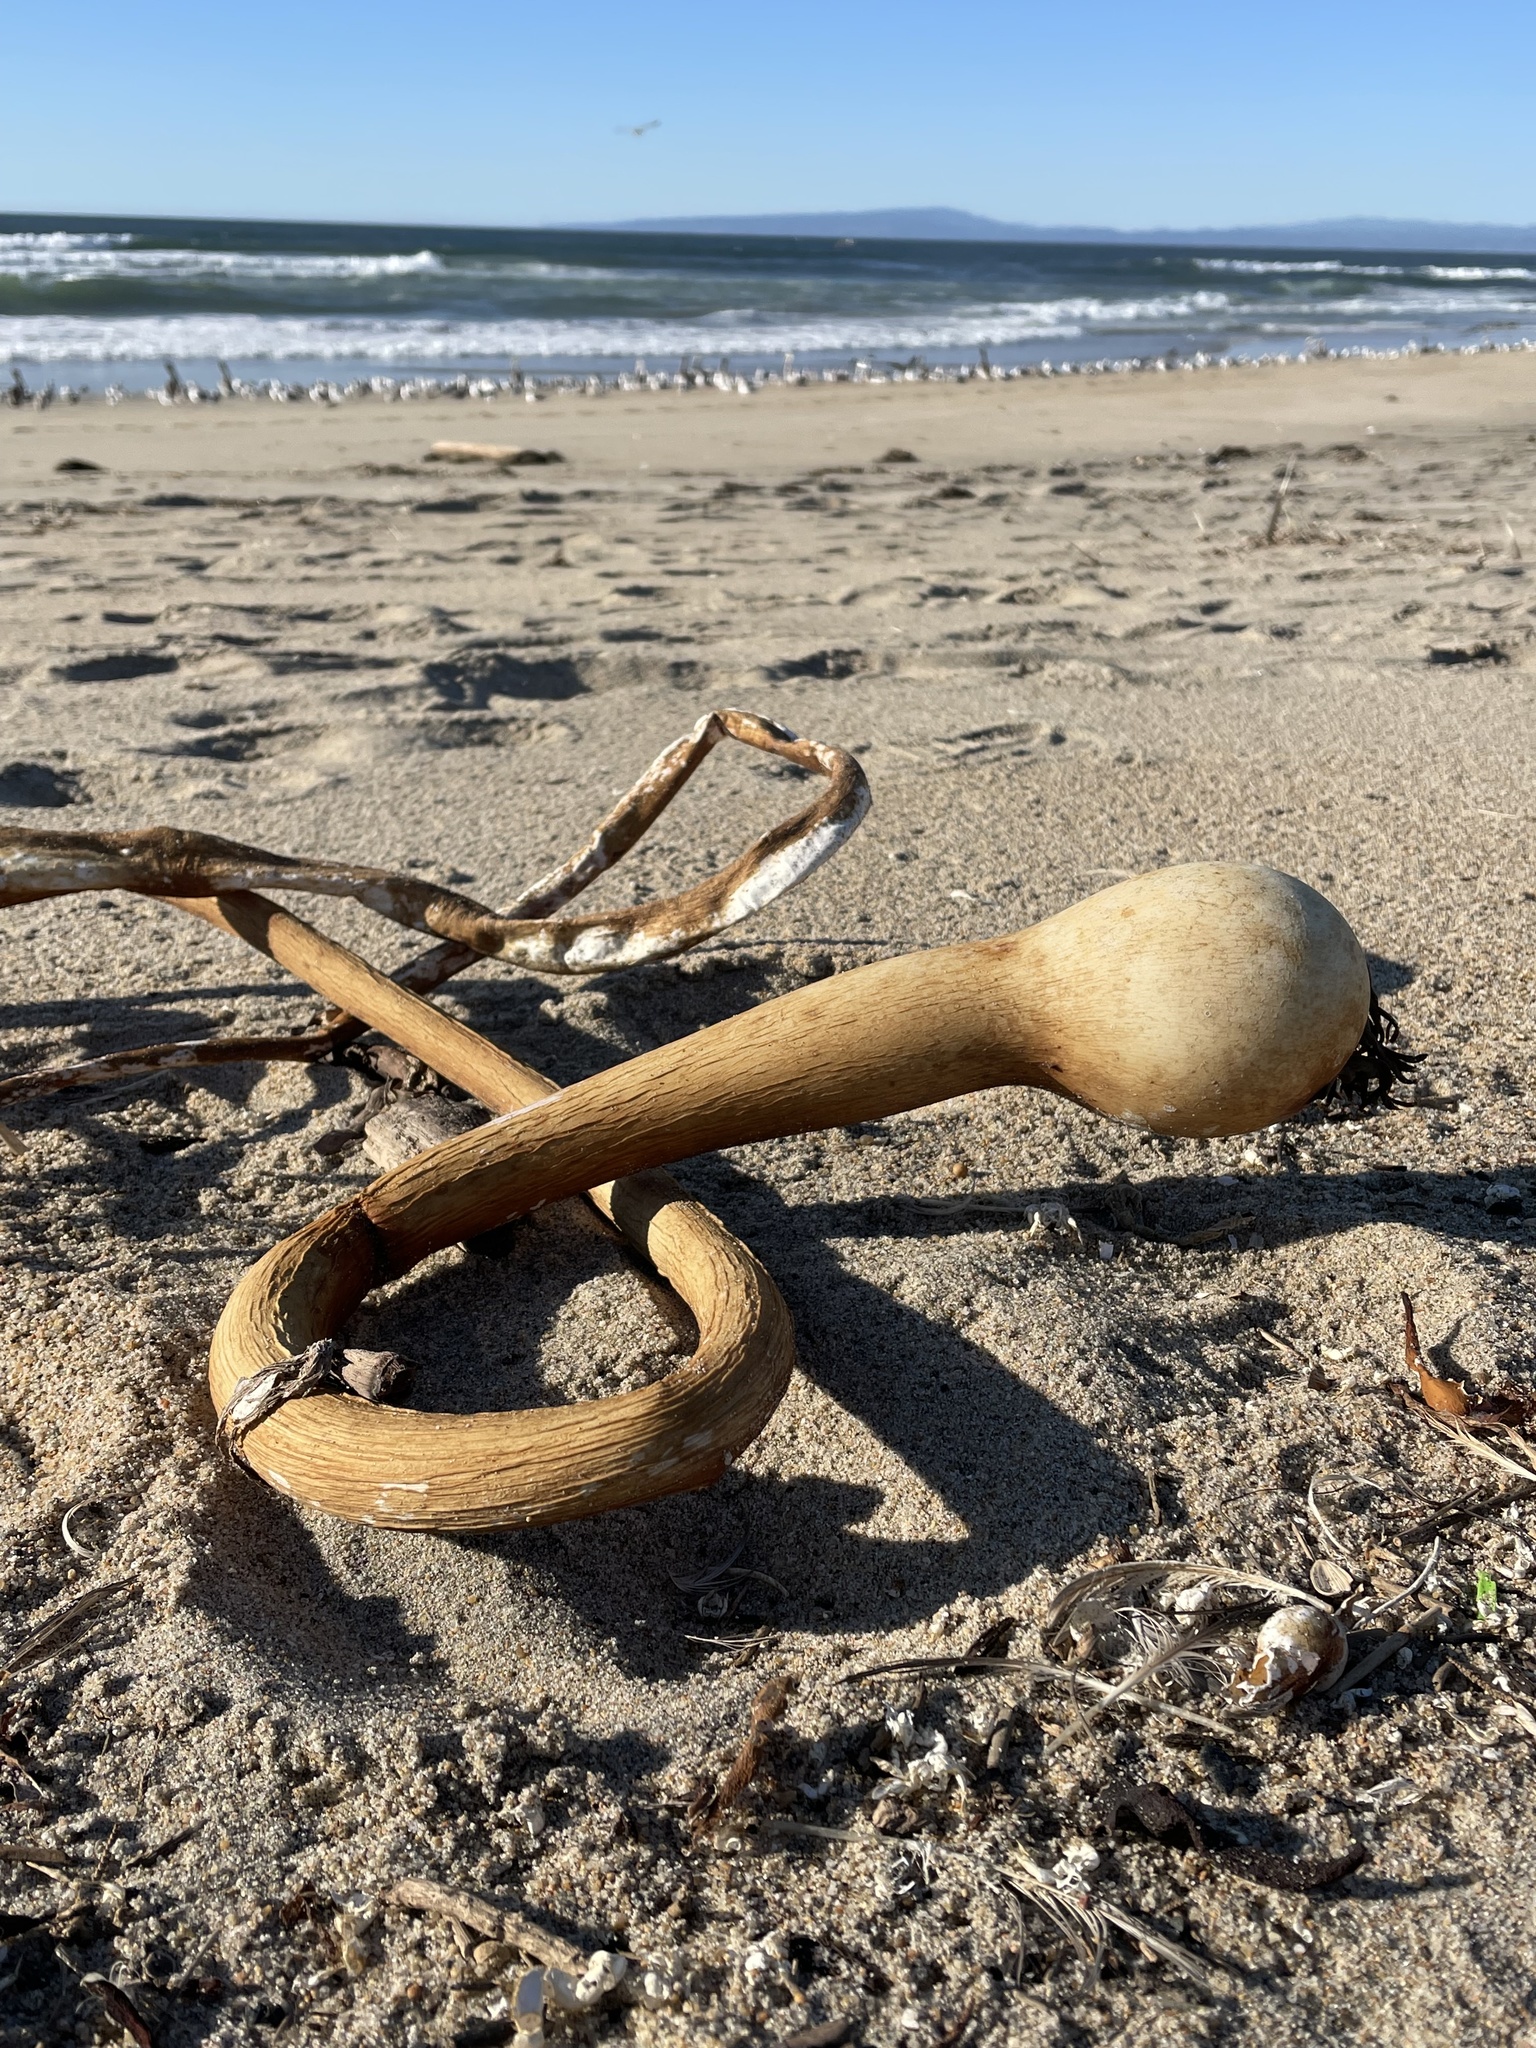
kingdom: Chromista
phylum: Ochrophyta
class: Phaeophyceae
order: Laminariales
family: Laminariaceae
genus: Nereocystis
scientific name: Nereocystis luetkeana
